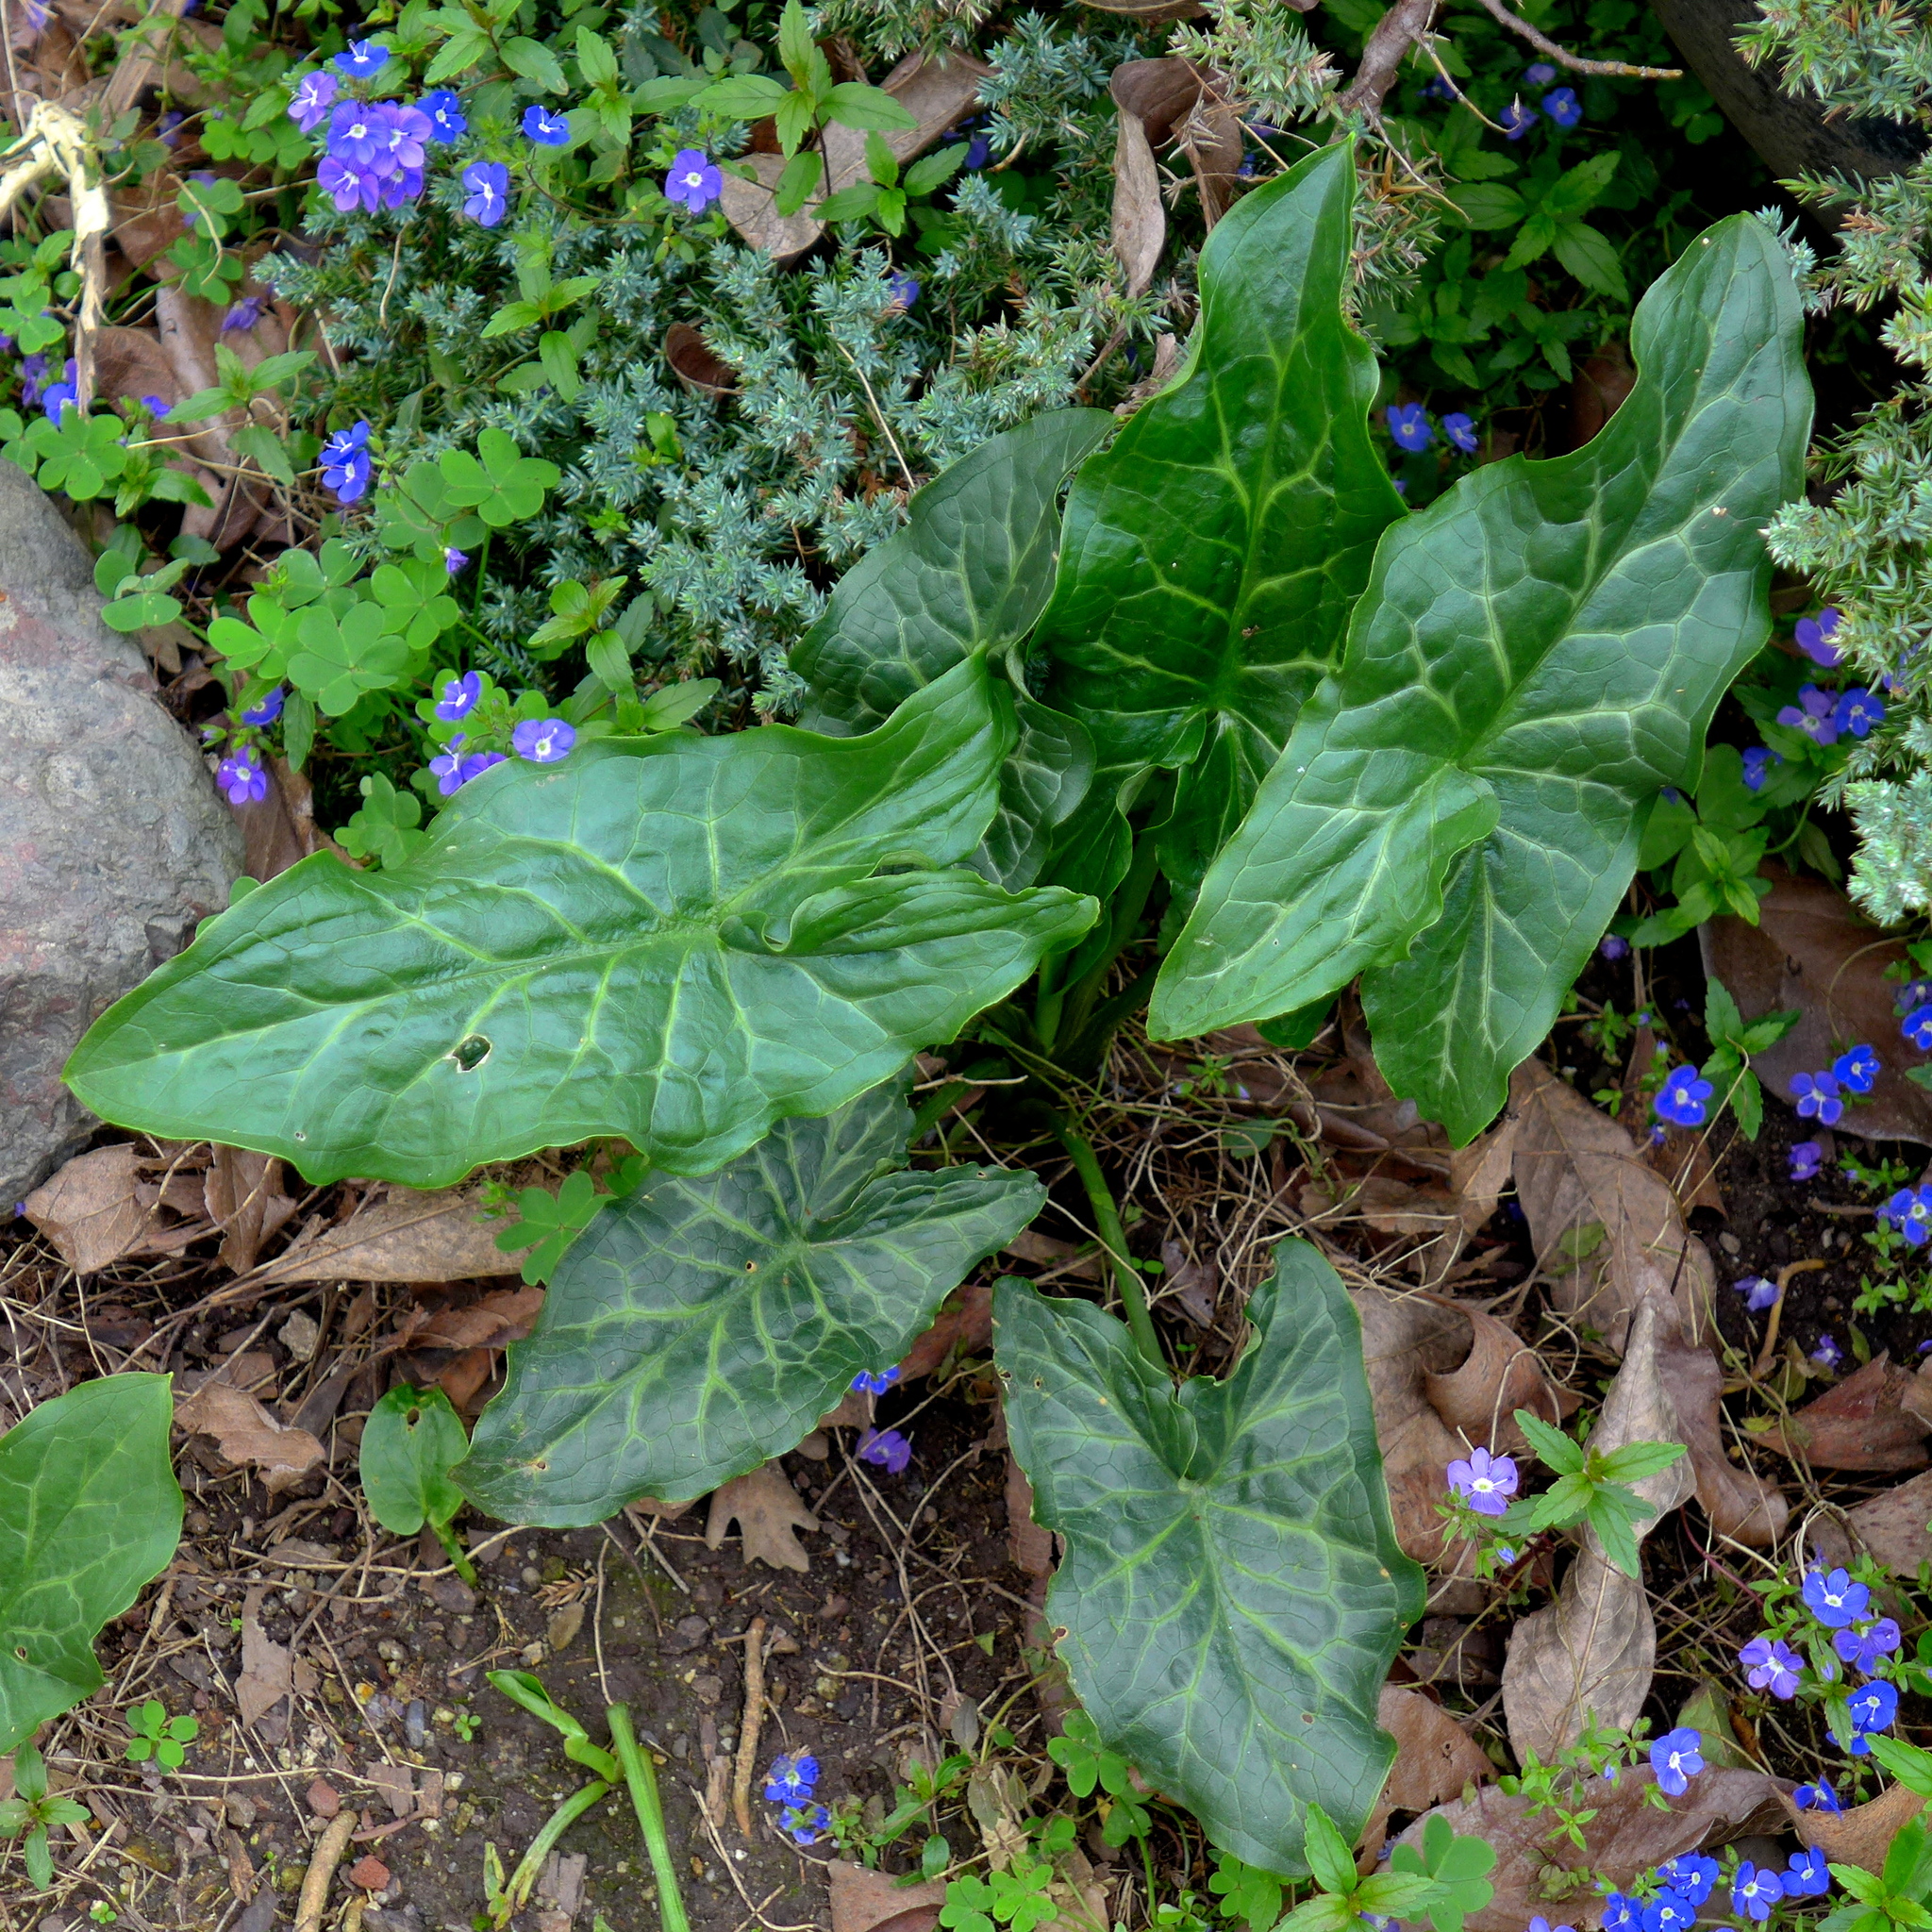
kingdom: Plantae
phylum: Tracheophyta
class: Liliopsida
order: Alismatales
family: Araceae
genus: Arum
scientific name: Arum italicum
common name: Italian lords-and-ladies
